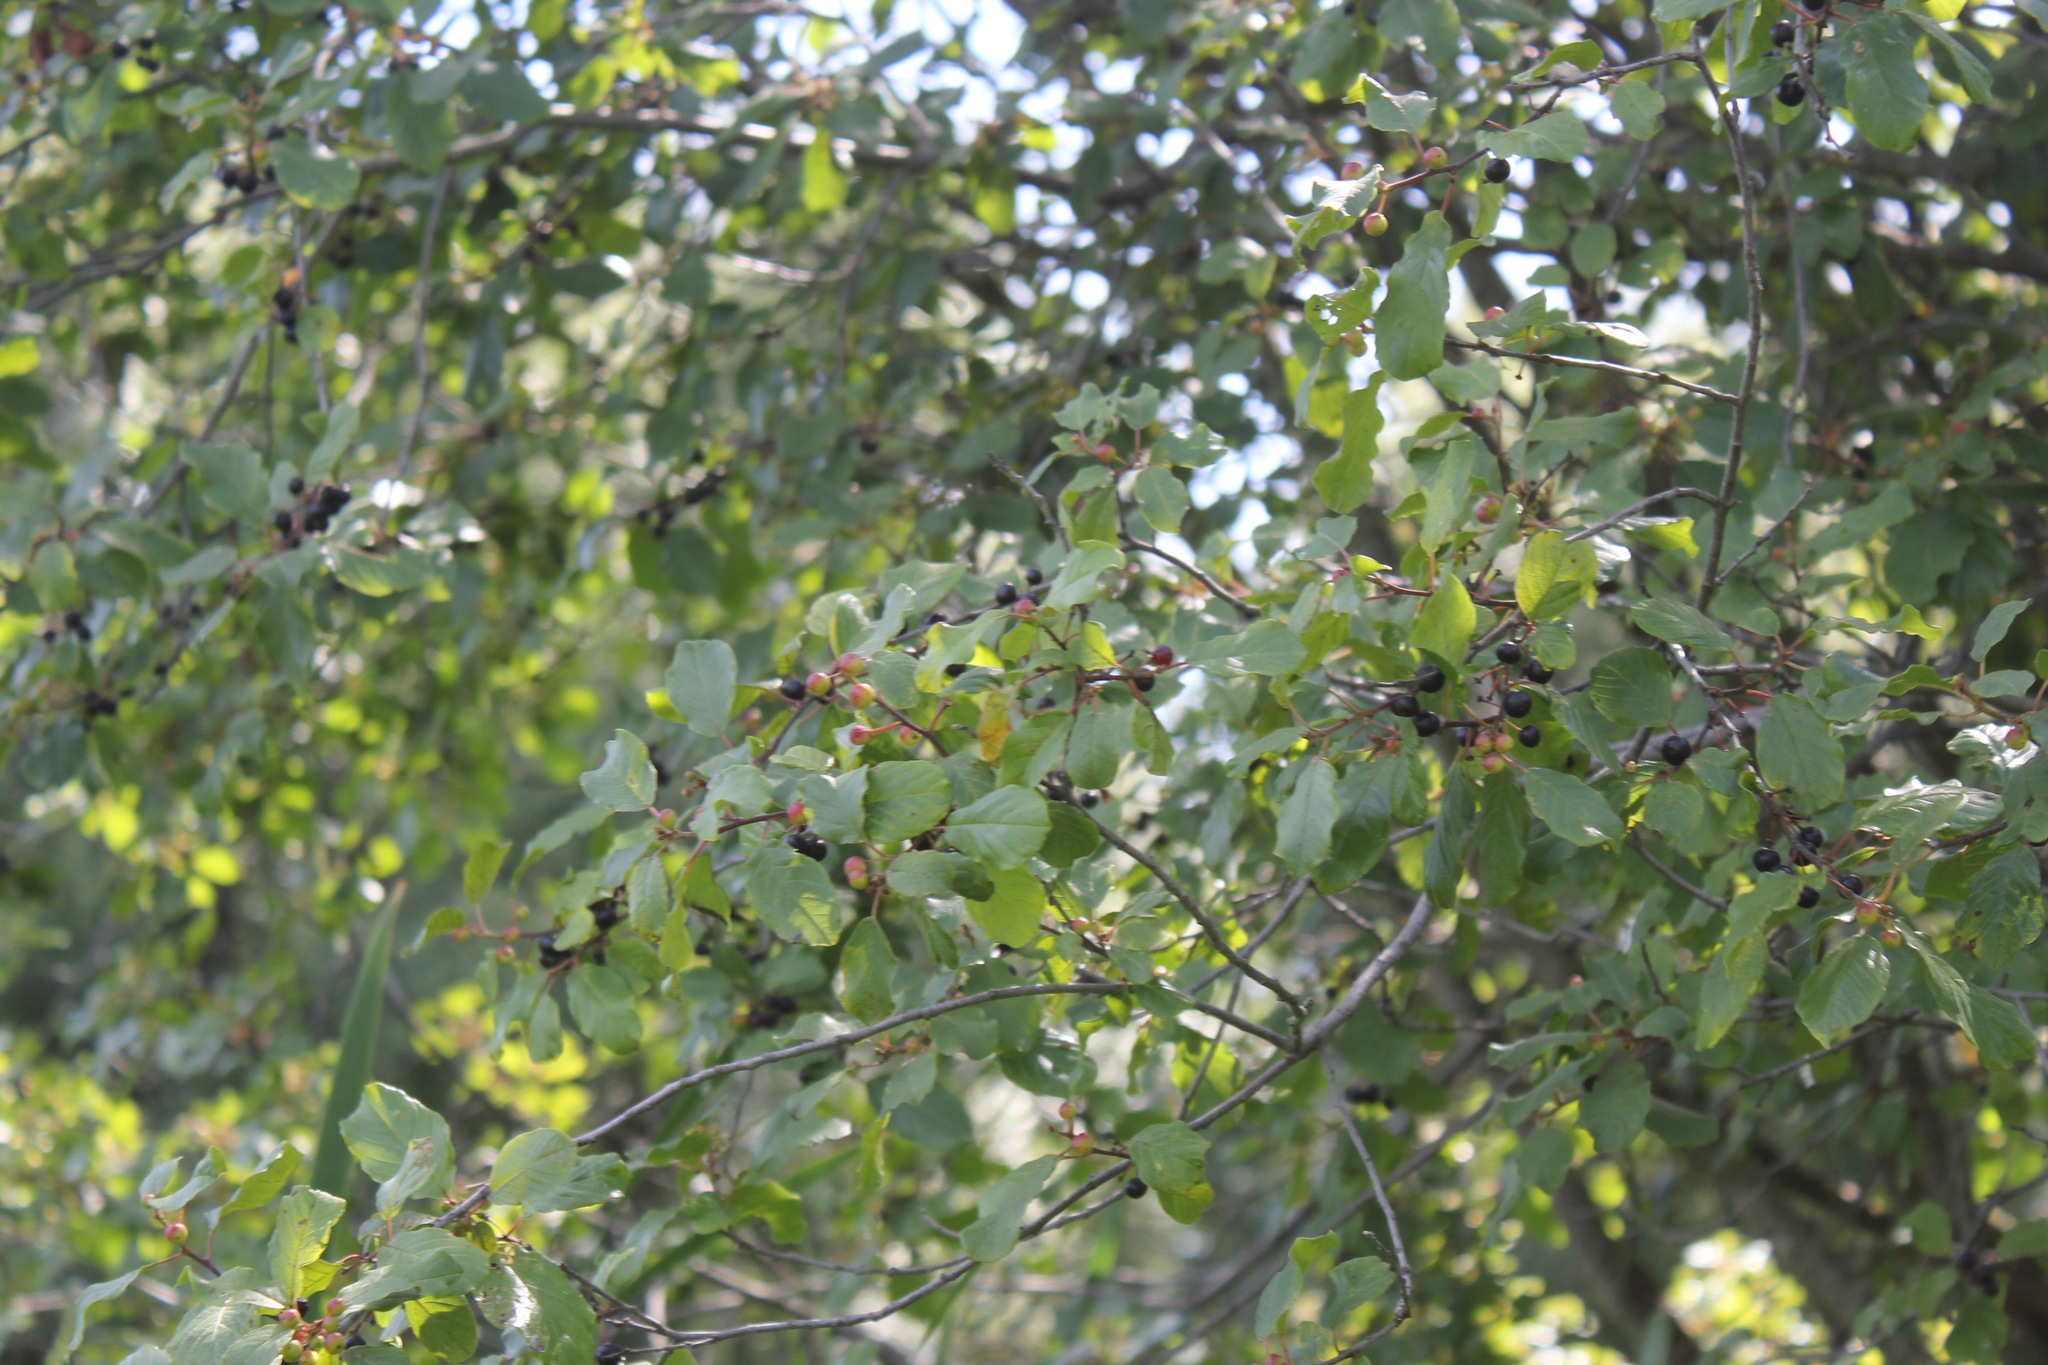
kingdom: Plantae
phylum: Tracheophyta
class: Magnoliopsida
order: Rosales
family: Rhamnaceae
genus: Frangula
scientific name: Frangula alnus
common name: Alder buckthorn
